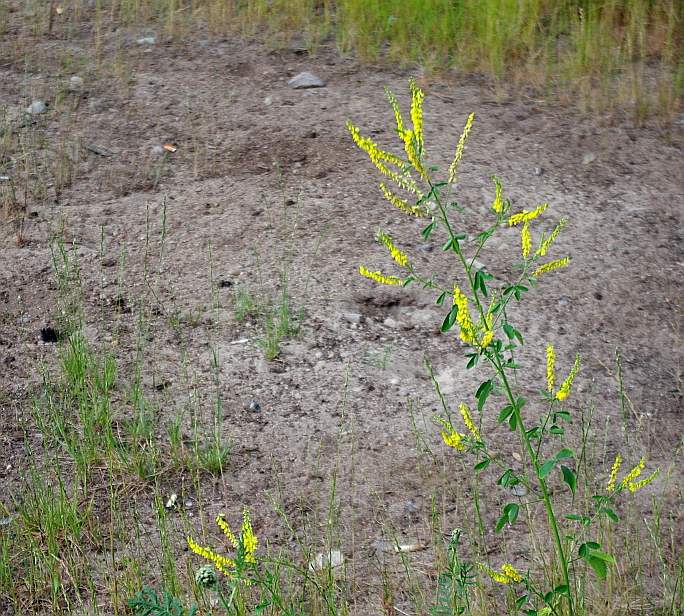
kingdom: Plantae
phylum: Tracheophyta
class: Magnoliopsida
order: Fabales
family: Fabaceae
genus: Melilotus
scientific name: Melilotus officinalis
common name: Sweetclover
